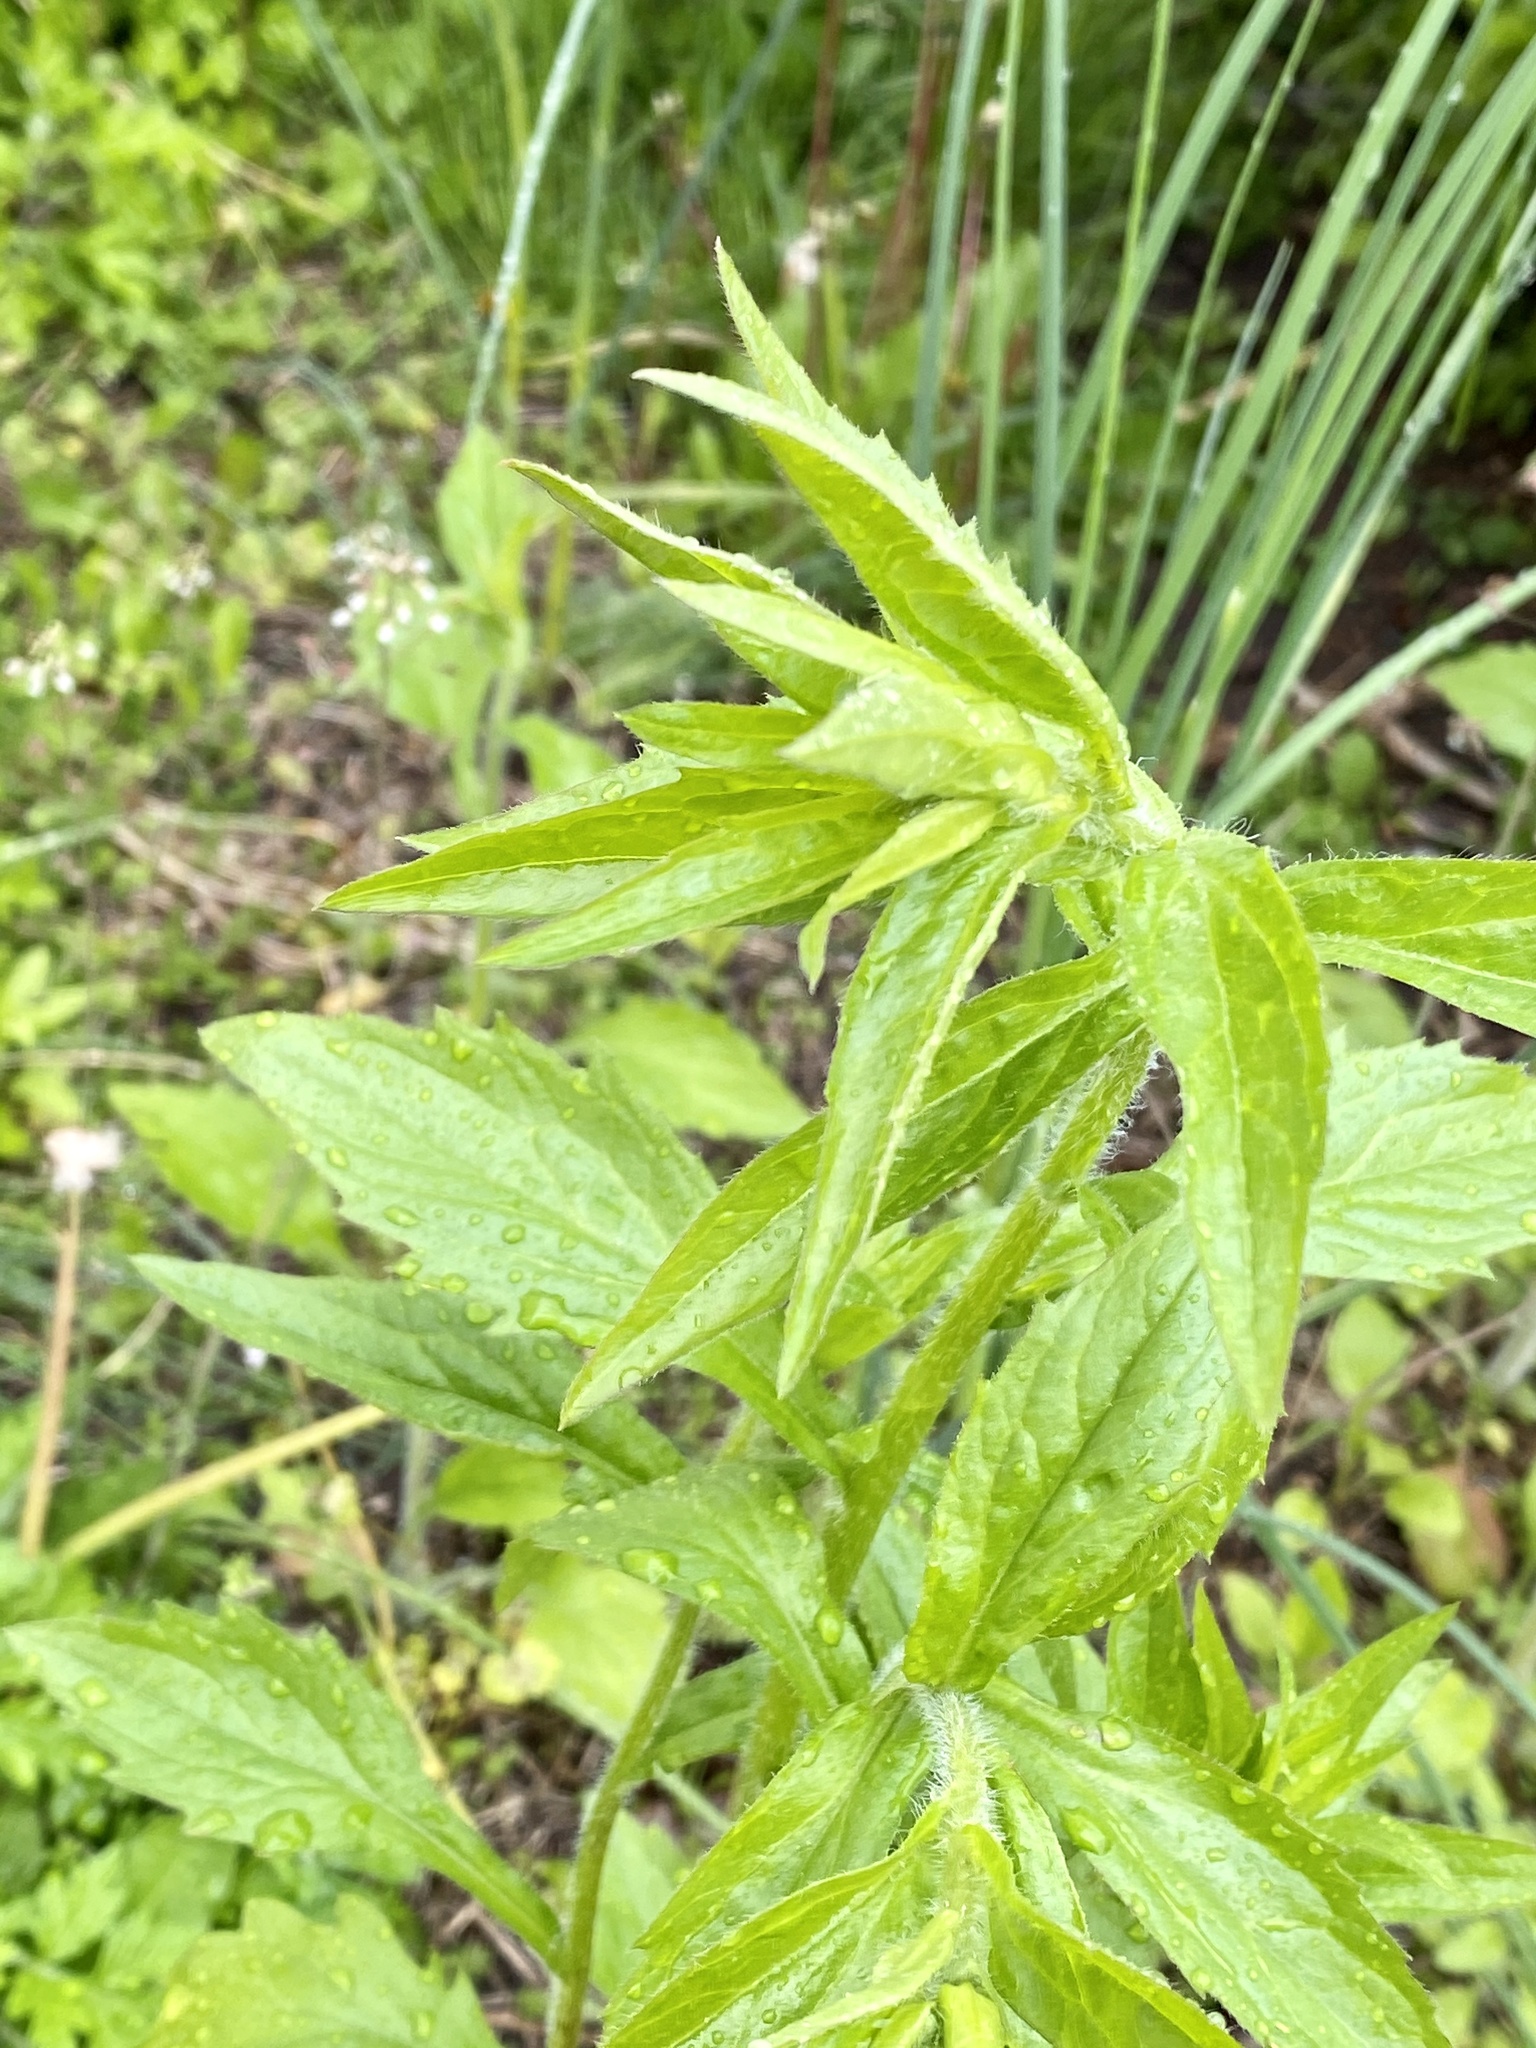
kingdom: Plantae
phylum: Tracheophyta
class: Magnoliopsida
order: Asterales
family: Asteraceae
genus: Erigeron
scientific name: Erigeron annuus
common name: Tall fleabane
